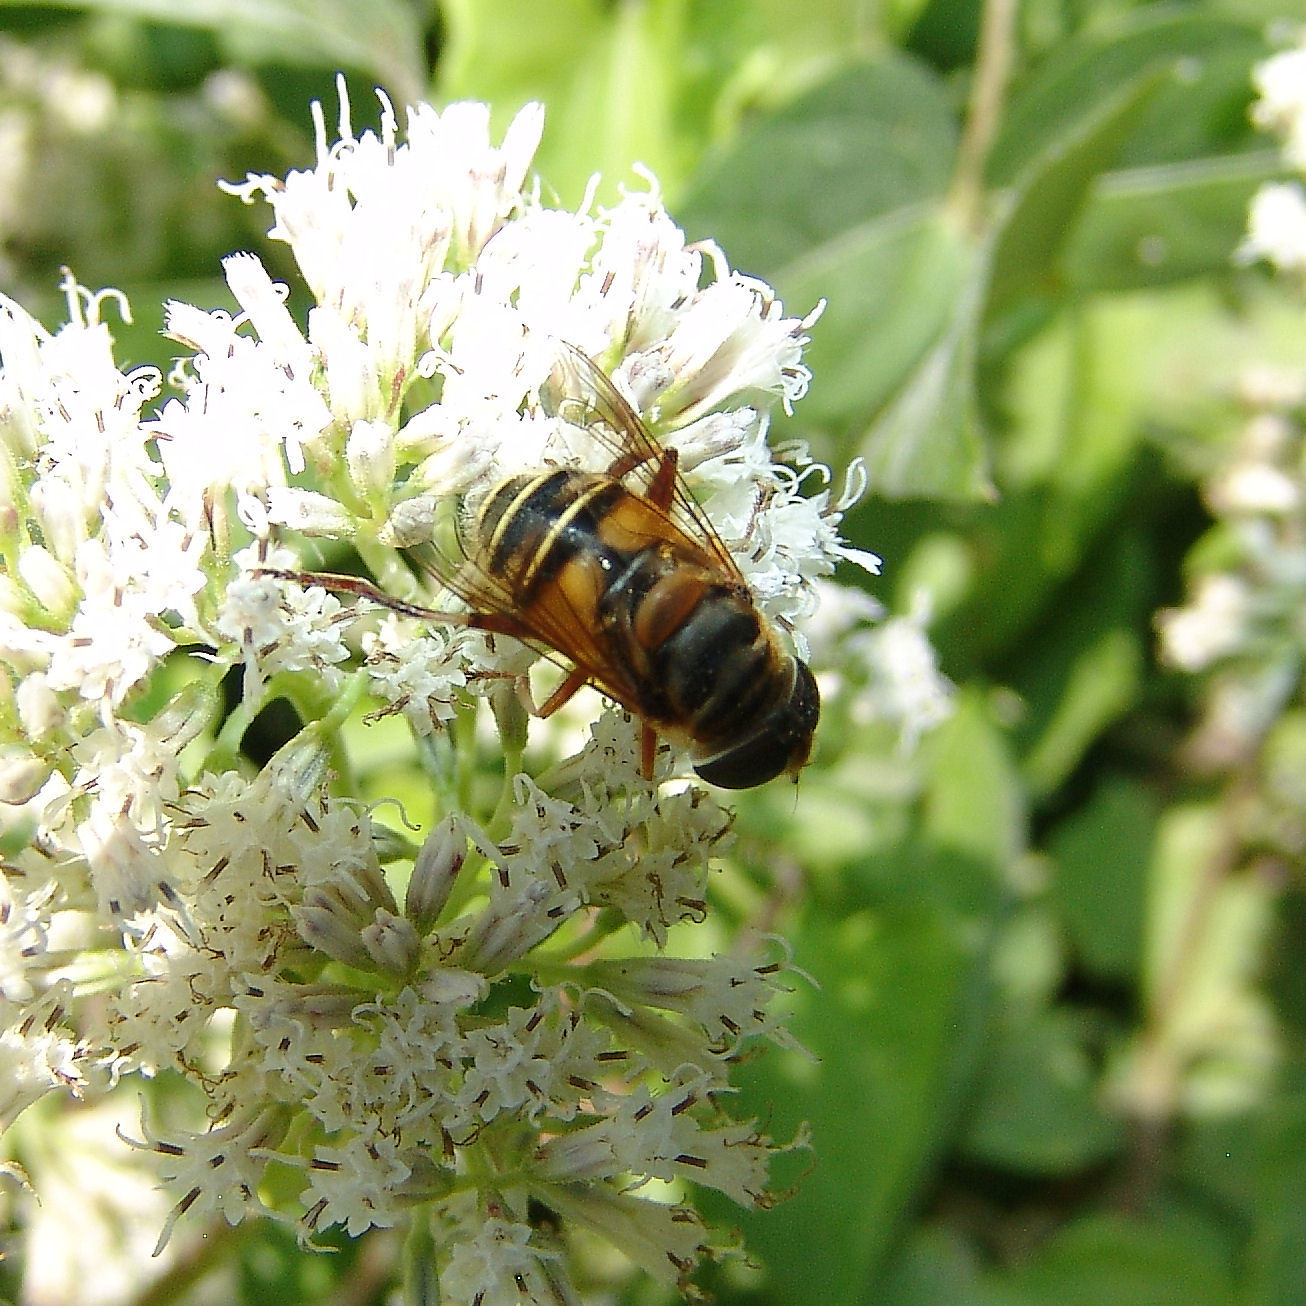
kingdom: Animalia
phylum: Arthropoda
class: Insecta
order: Diptera
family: Syrphidae
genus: Palpada
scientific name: Palpada vinetorum
